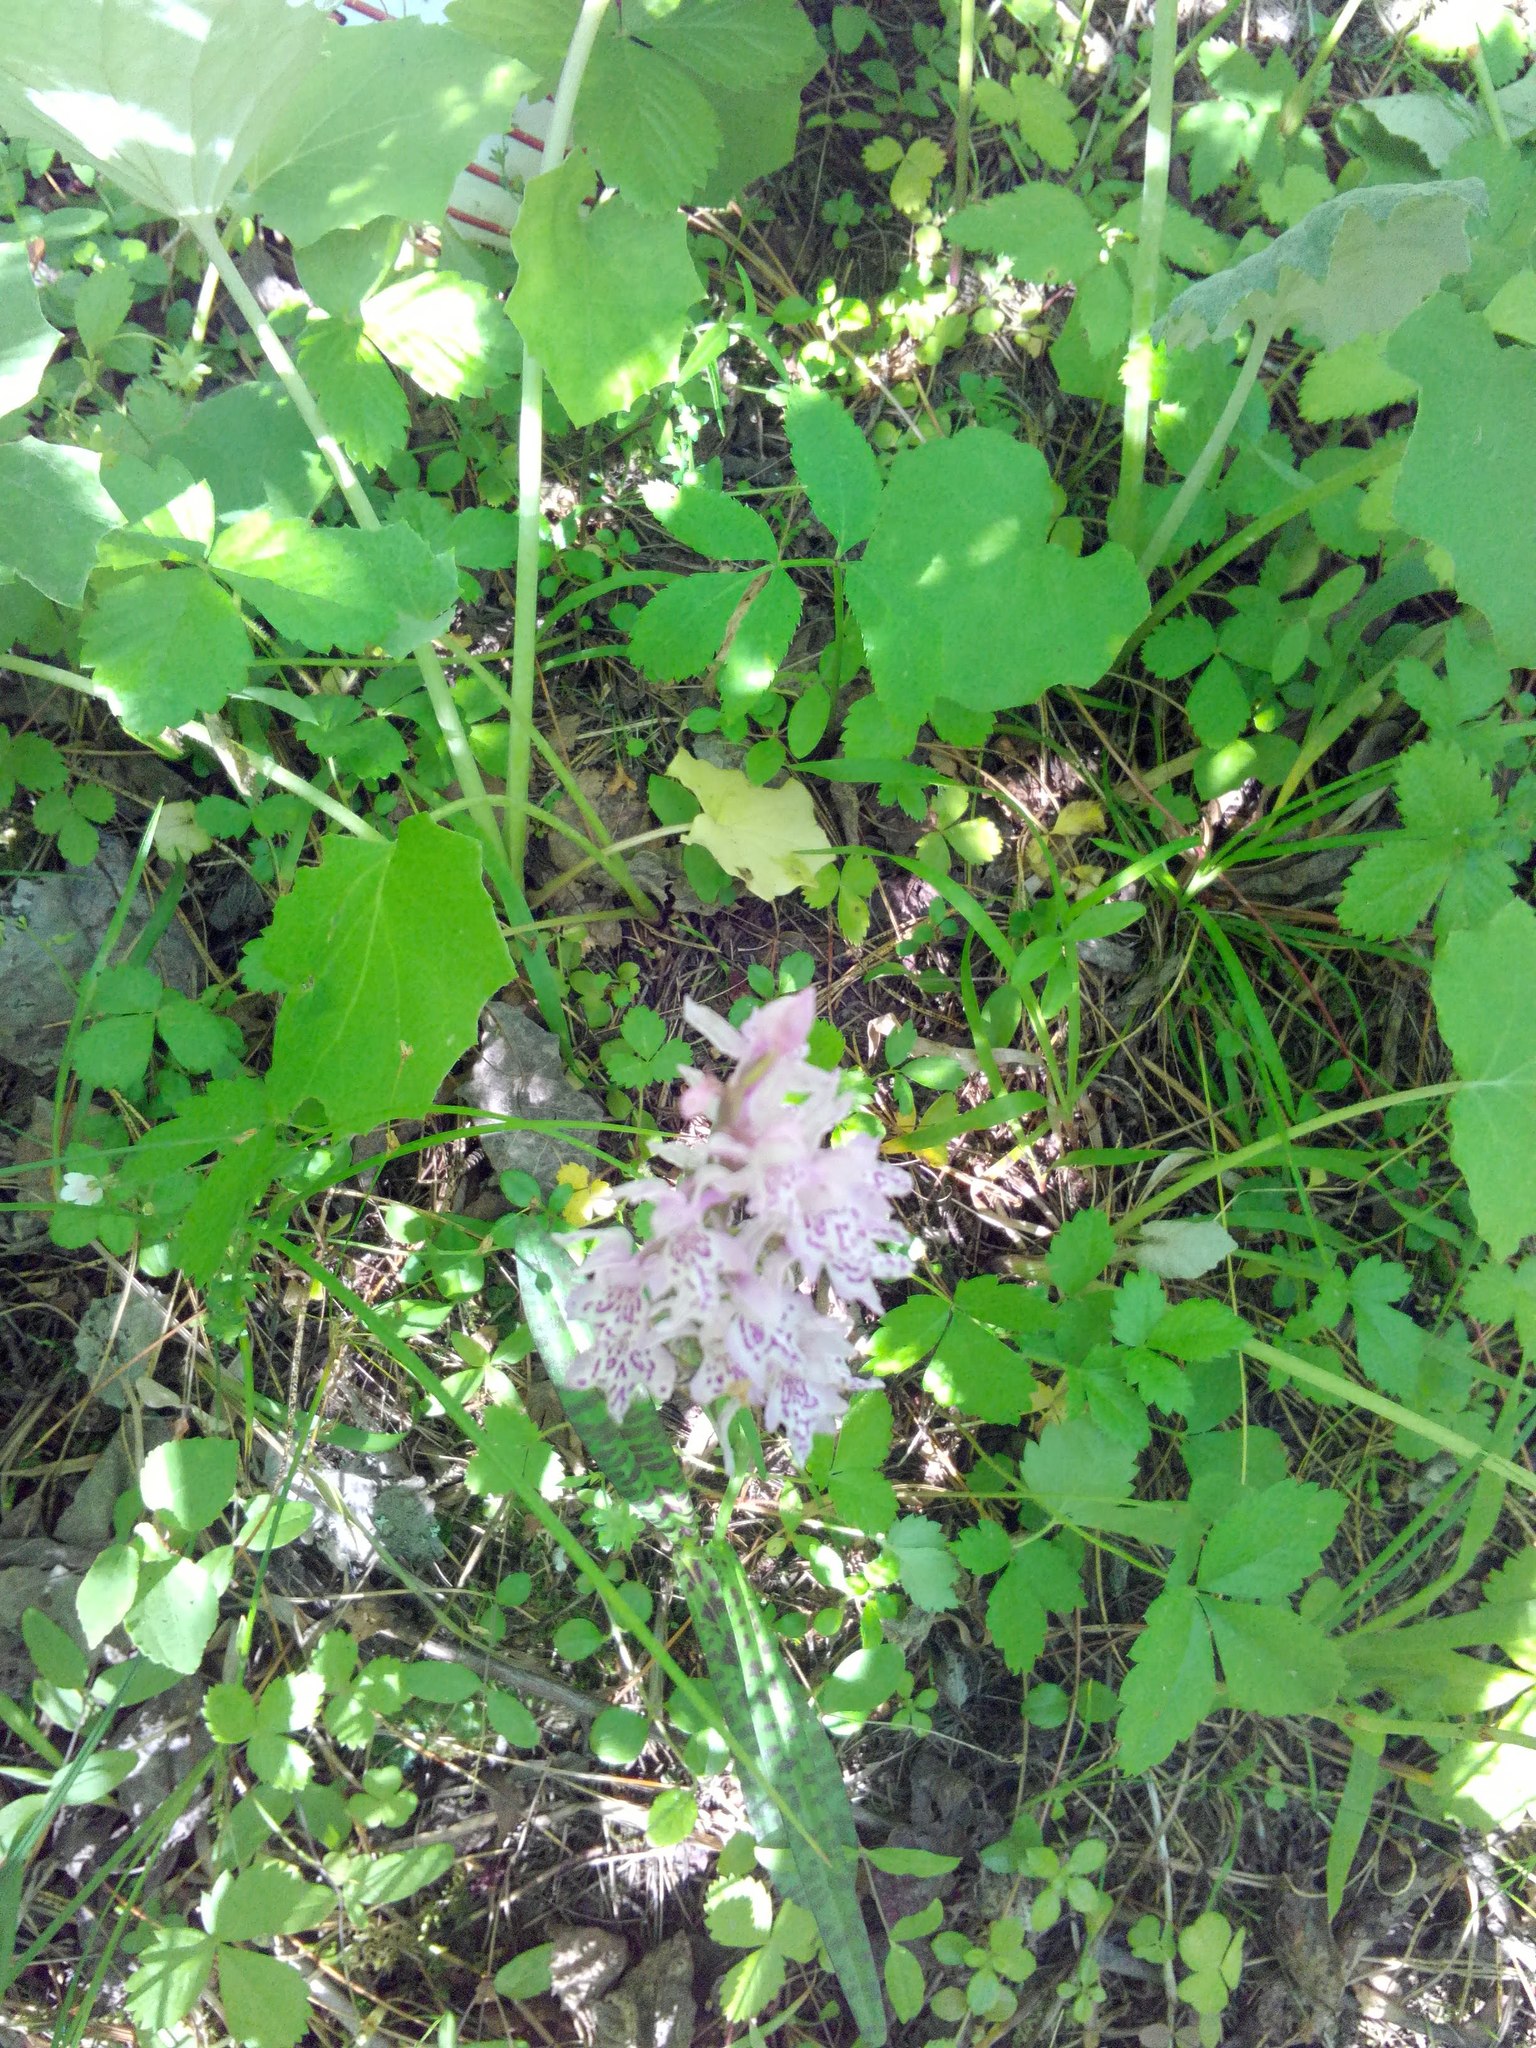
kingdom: Plantae
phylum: Tracheophyta
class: Liliopsida
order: Asparagales
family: Orchidaceae
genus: Dactylorhiza
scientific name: Dactylorhiza maculata
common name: Heath spotted-orchid
